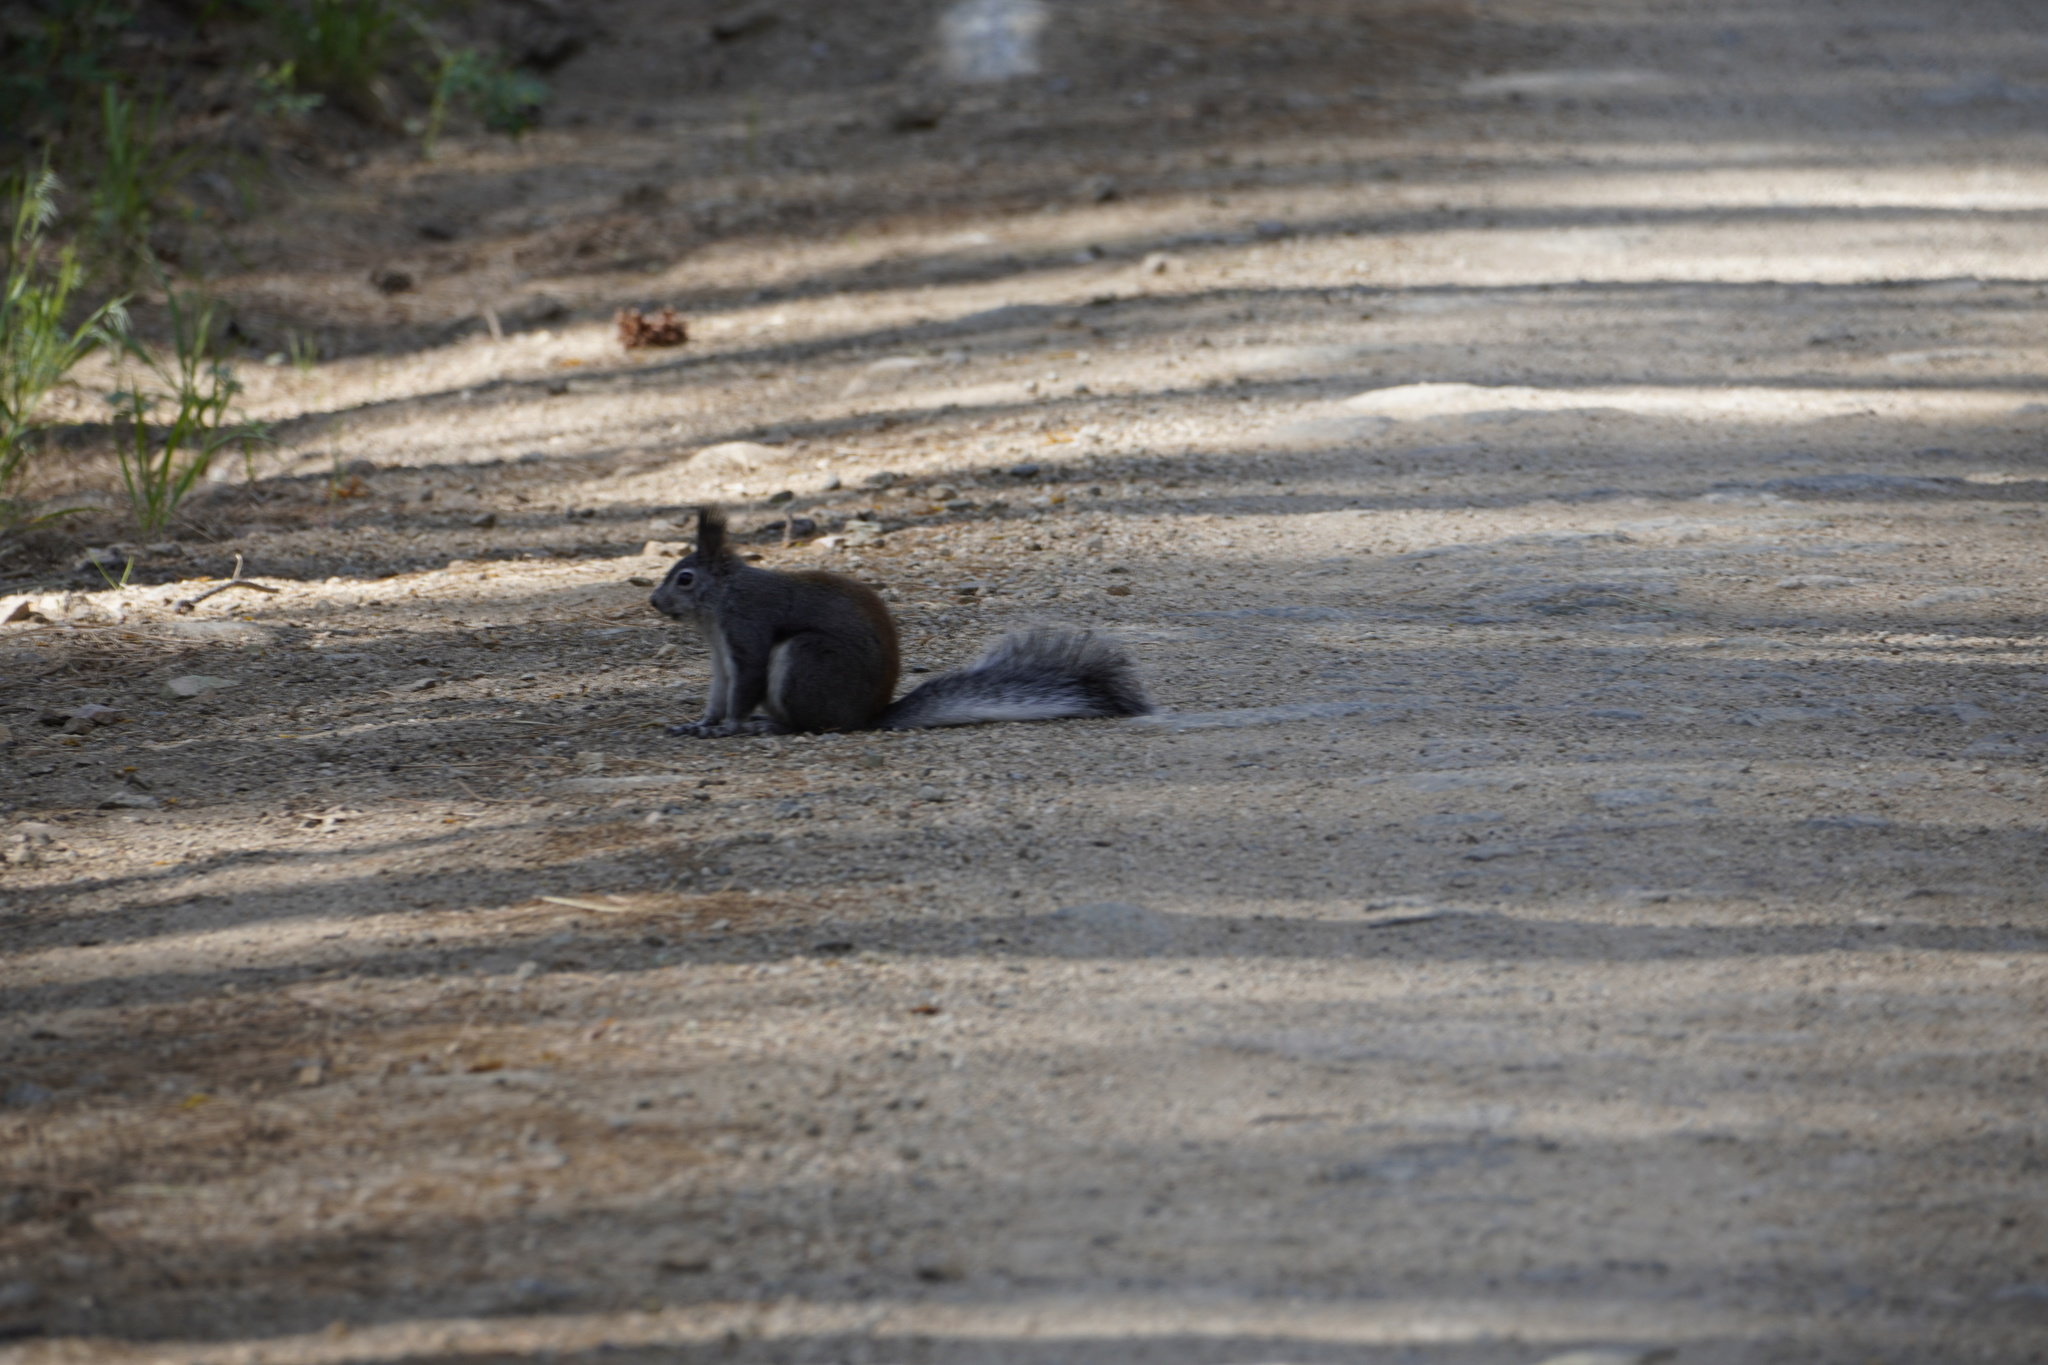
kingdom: Animalia
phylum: Chordata
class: Mammalia
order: Rodentia
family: Sciuridae
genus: Sciurus
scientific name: Sciurus aberti
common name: Abert's squirrel
